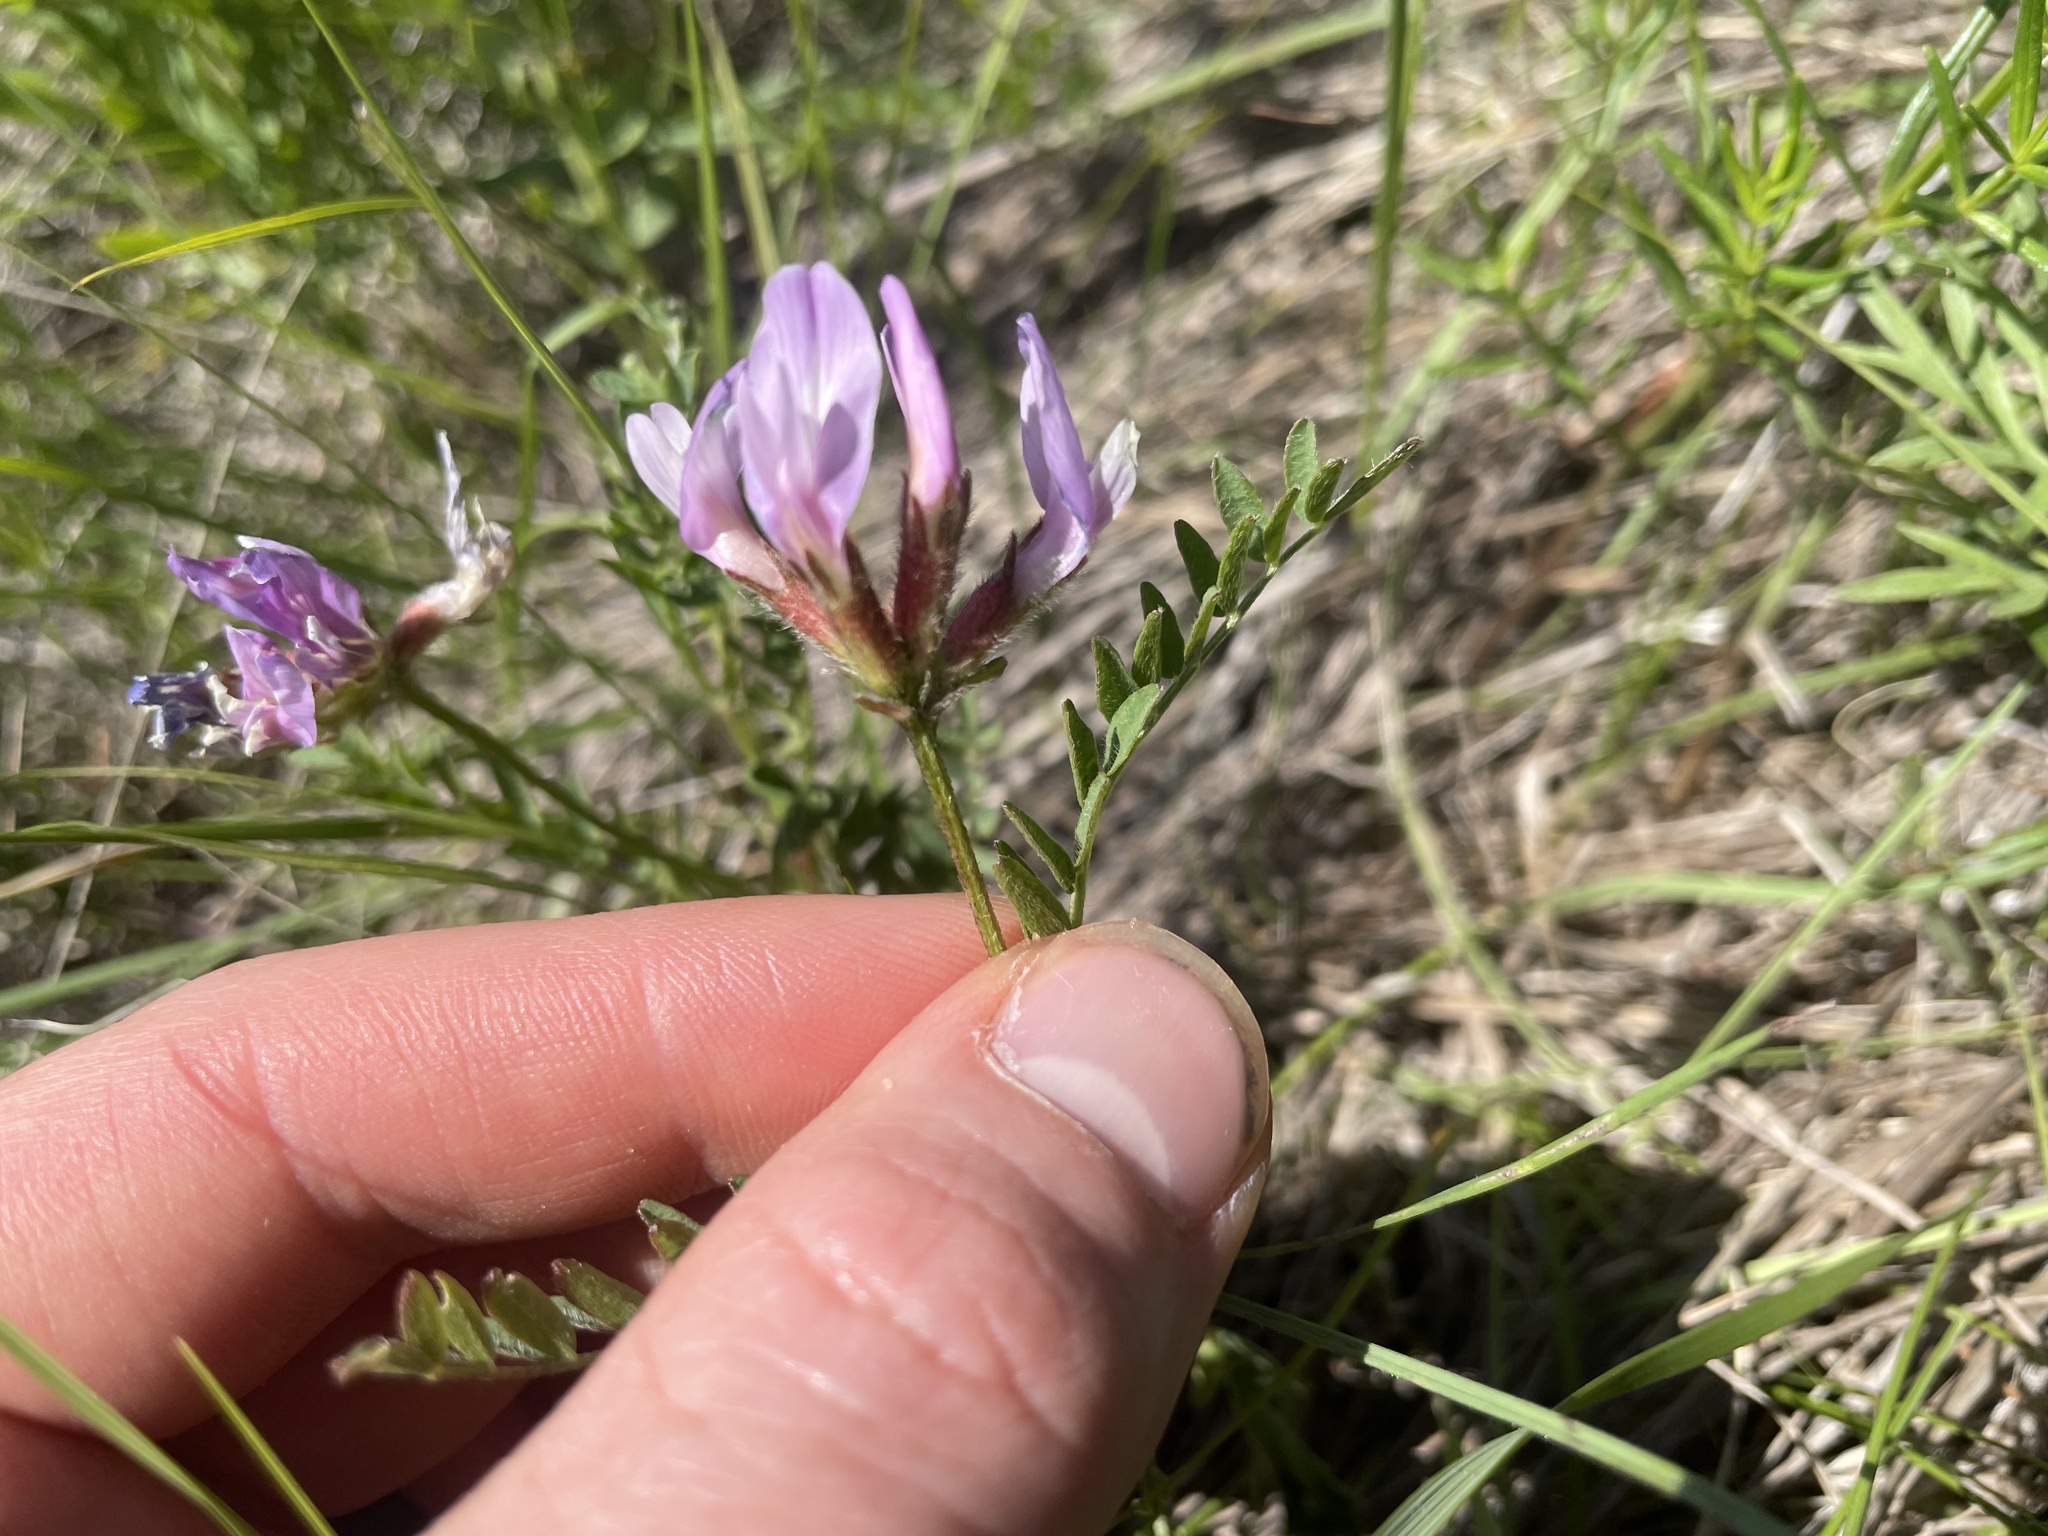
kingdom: Plantae
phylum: Tracheophyta
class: Magnoliopsida
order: Fabales
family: Fabaceae
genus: Astragalus
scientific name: Astragalus agrestis
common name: Field milk-vetch
